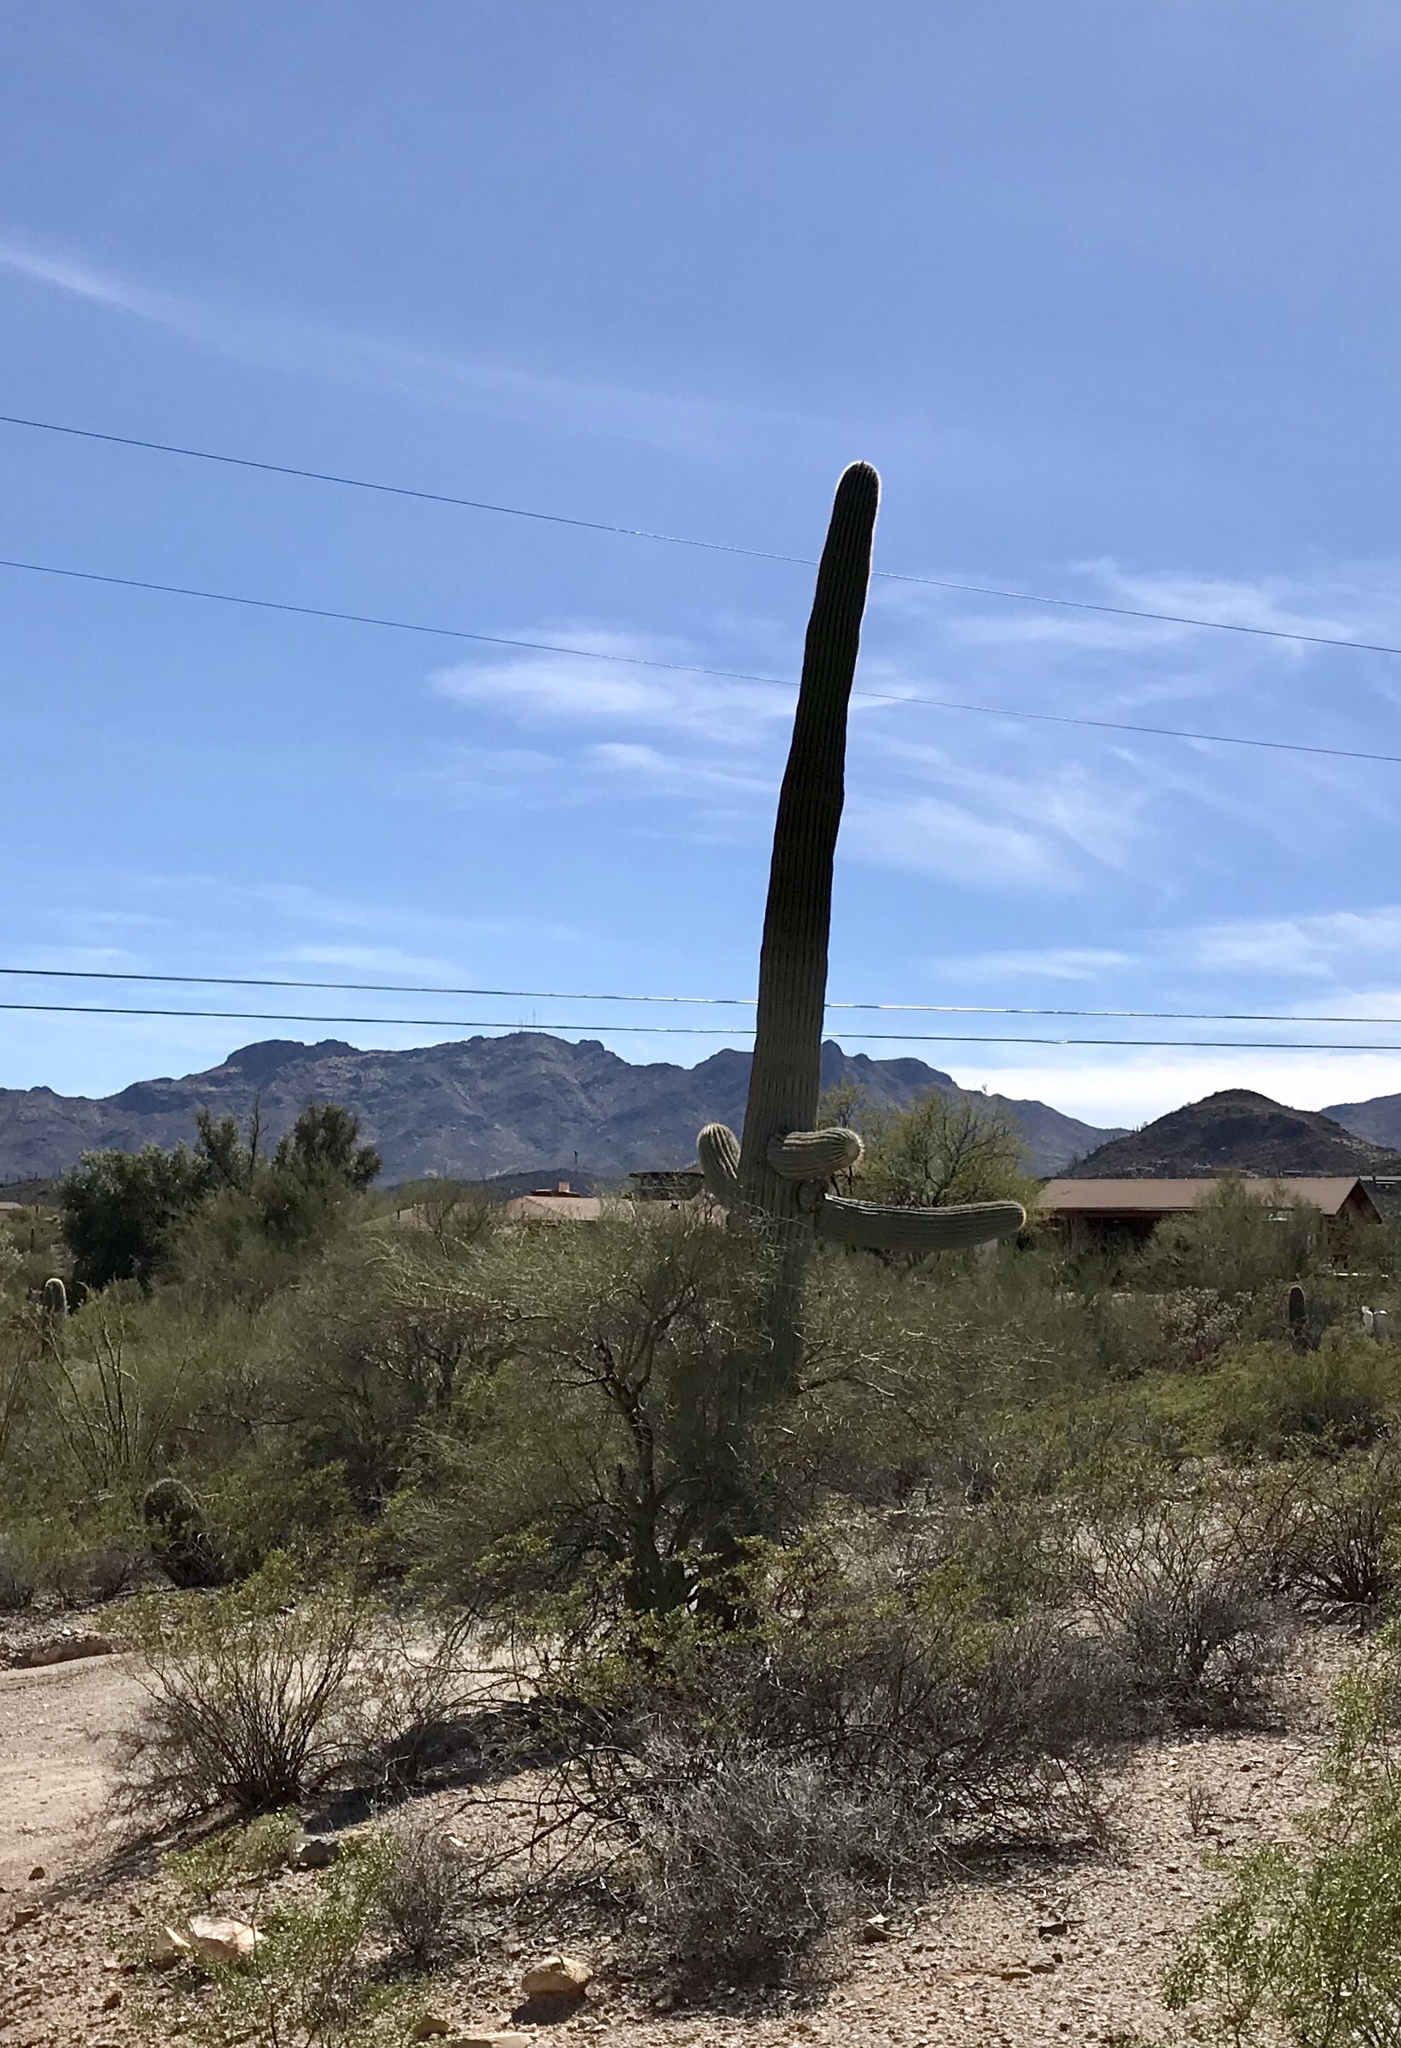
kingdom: Plantae
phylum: Tracheophyta
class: Magnoliopsida
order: Caryophyllales
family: Cactaceae
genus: Carnegiea
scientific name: Carnegiea gigantea
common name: Saguaro
